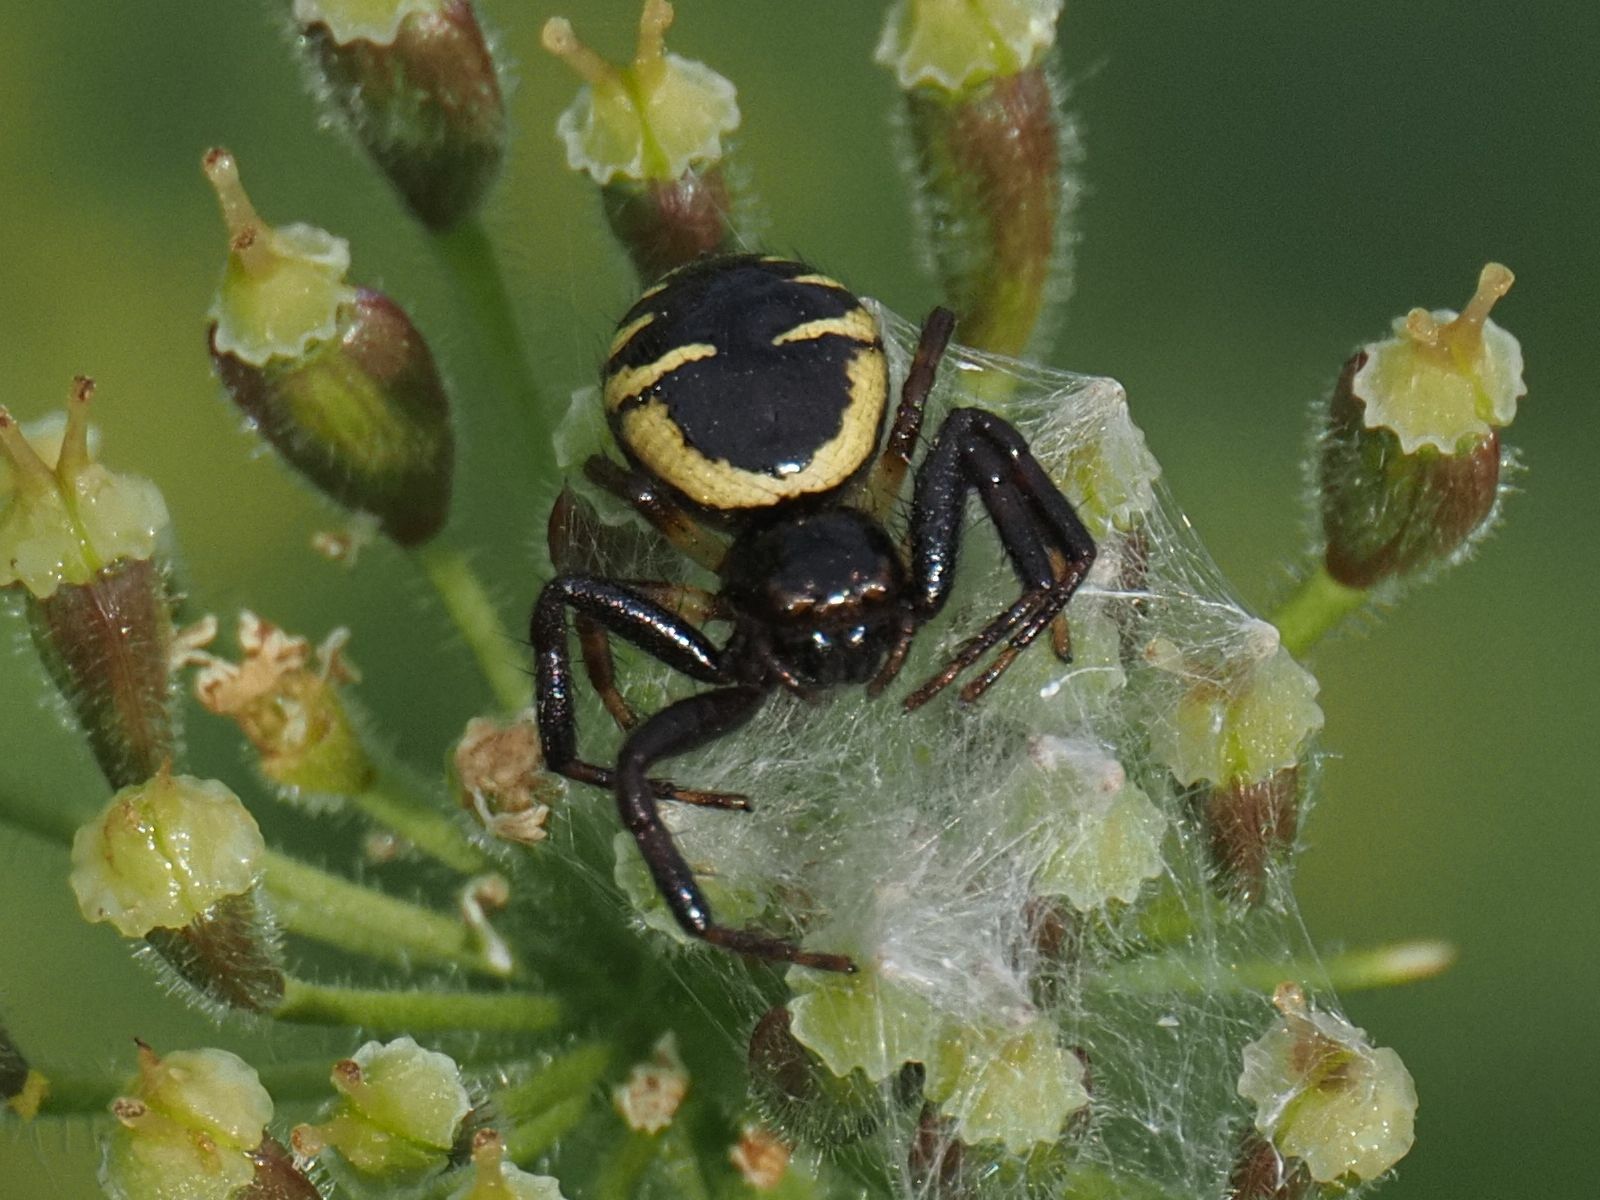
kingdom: Animalia
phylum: Arthropoda
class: Arachnida
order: Araneae
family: Thomisidae
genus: Synema
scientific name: Synema globosum
